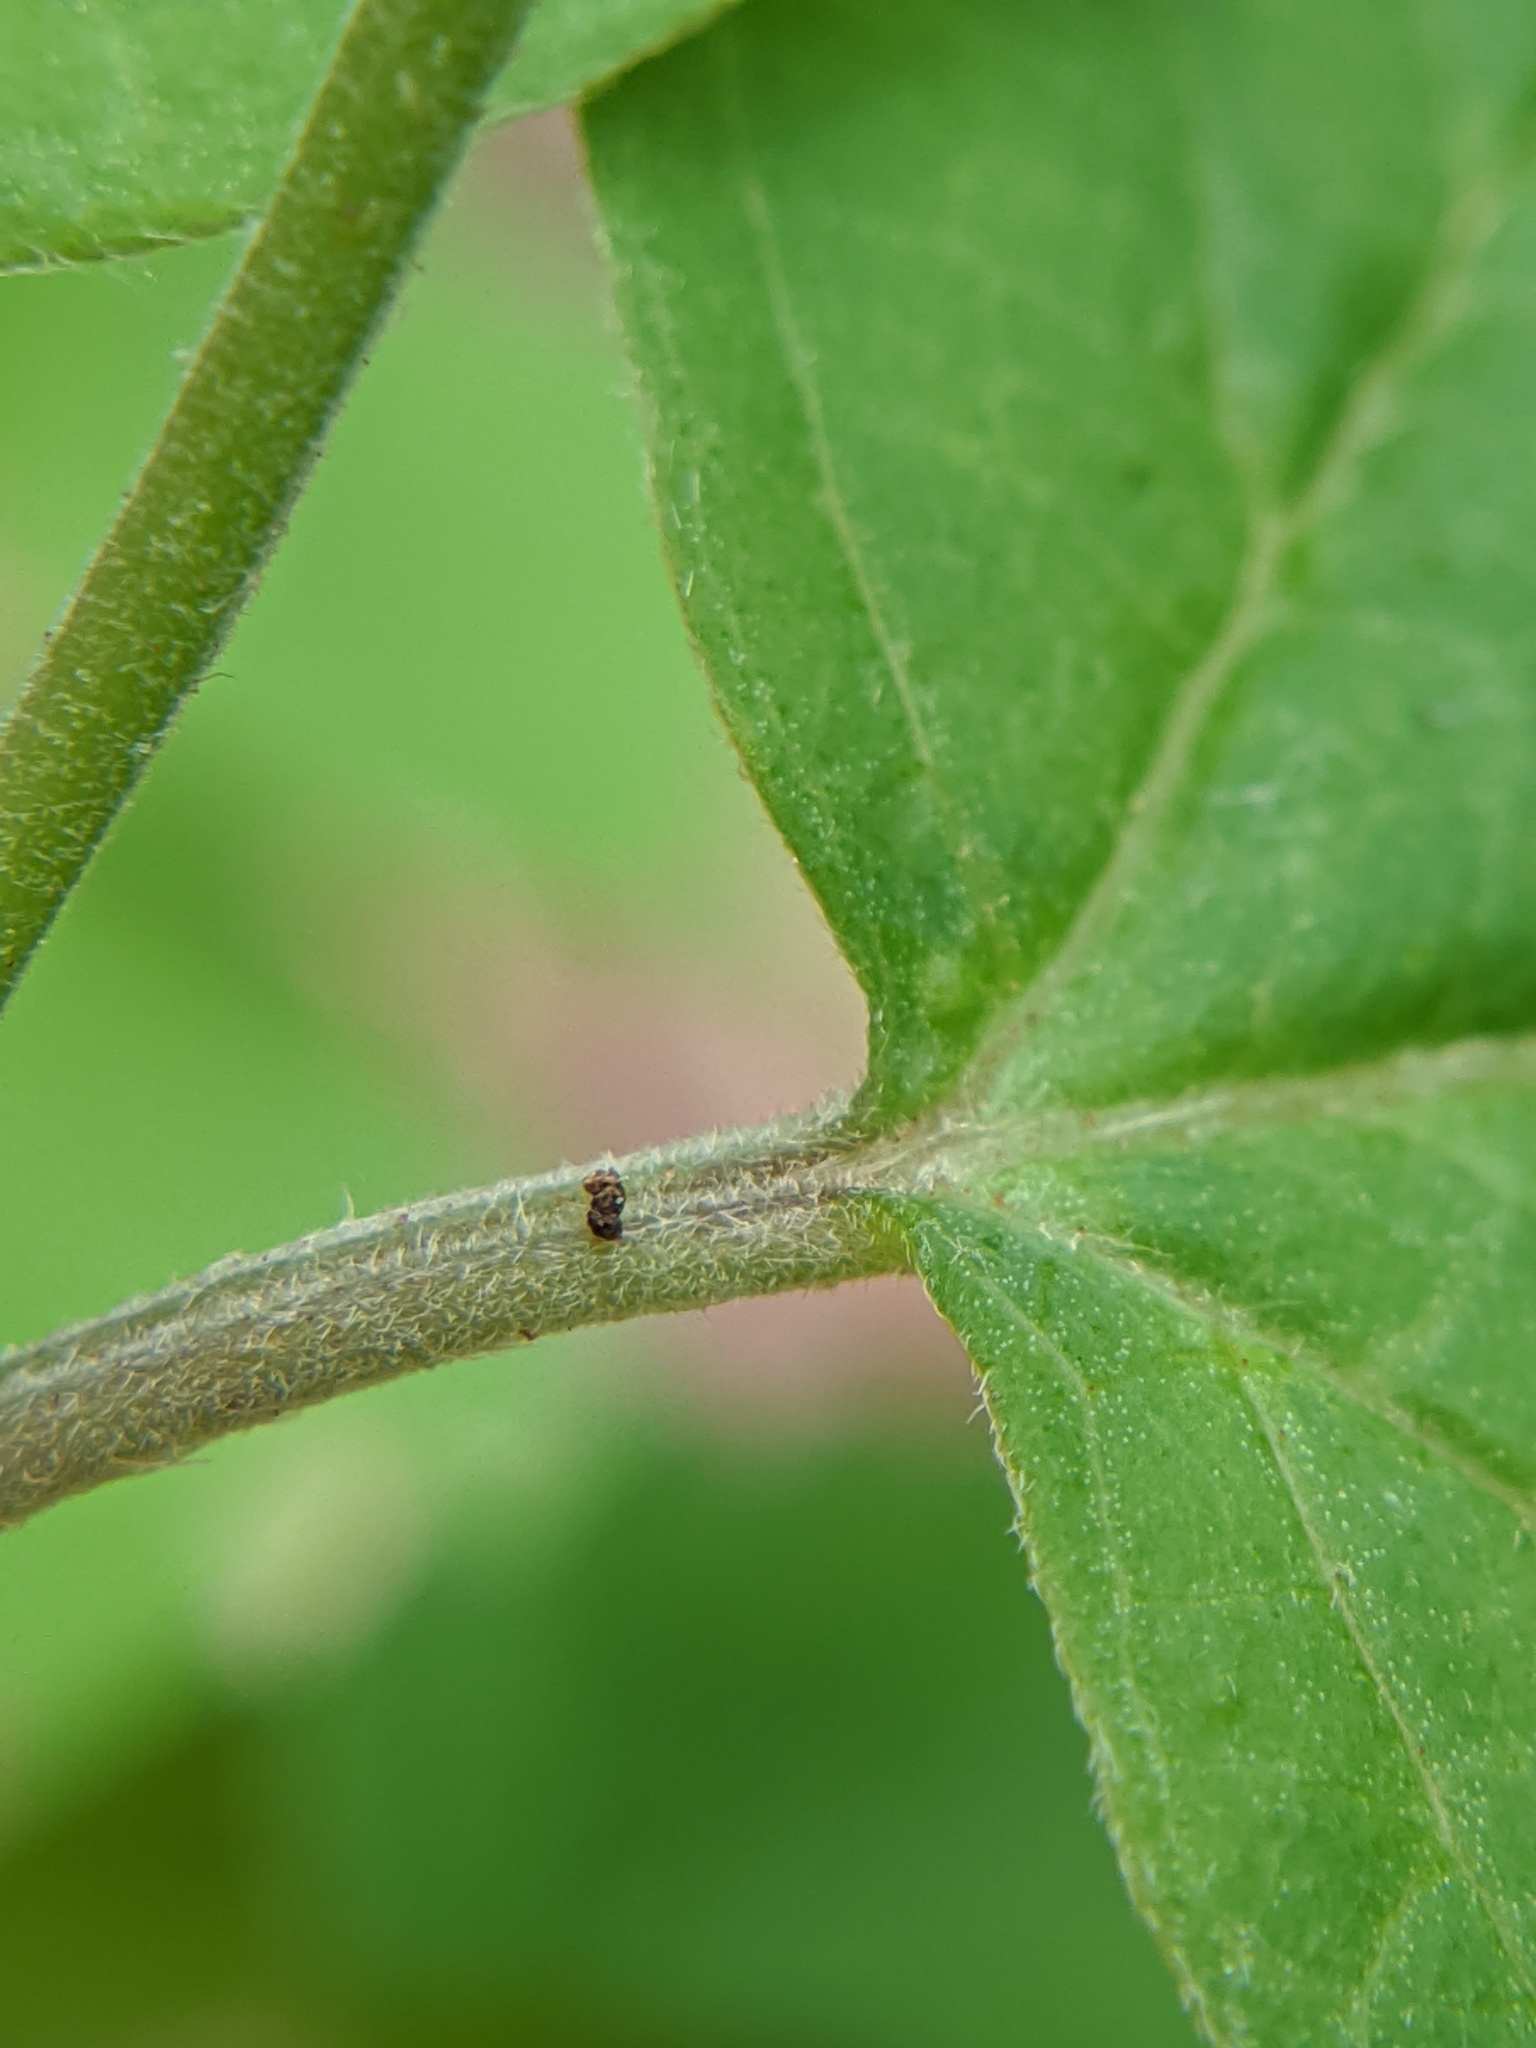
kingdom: Plantae
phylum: Tracheophyta
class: Magnoliopsida
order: Dipsacales
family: Viburnaceae
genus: Viburnum
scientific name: Viburnum acerifolium
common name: Dockmackie
